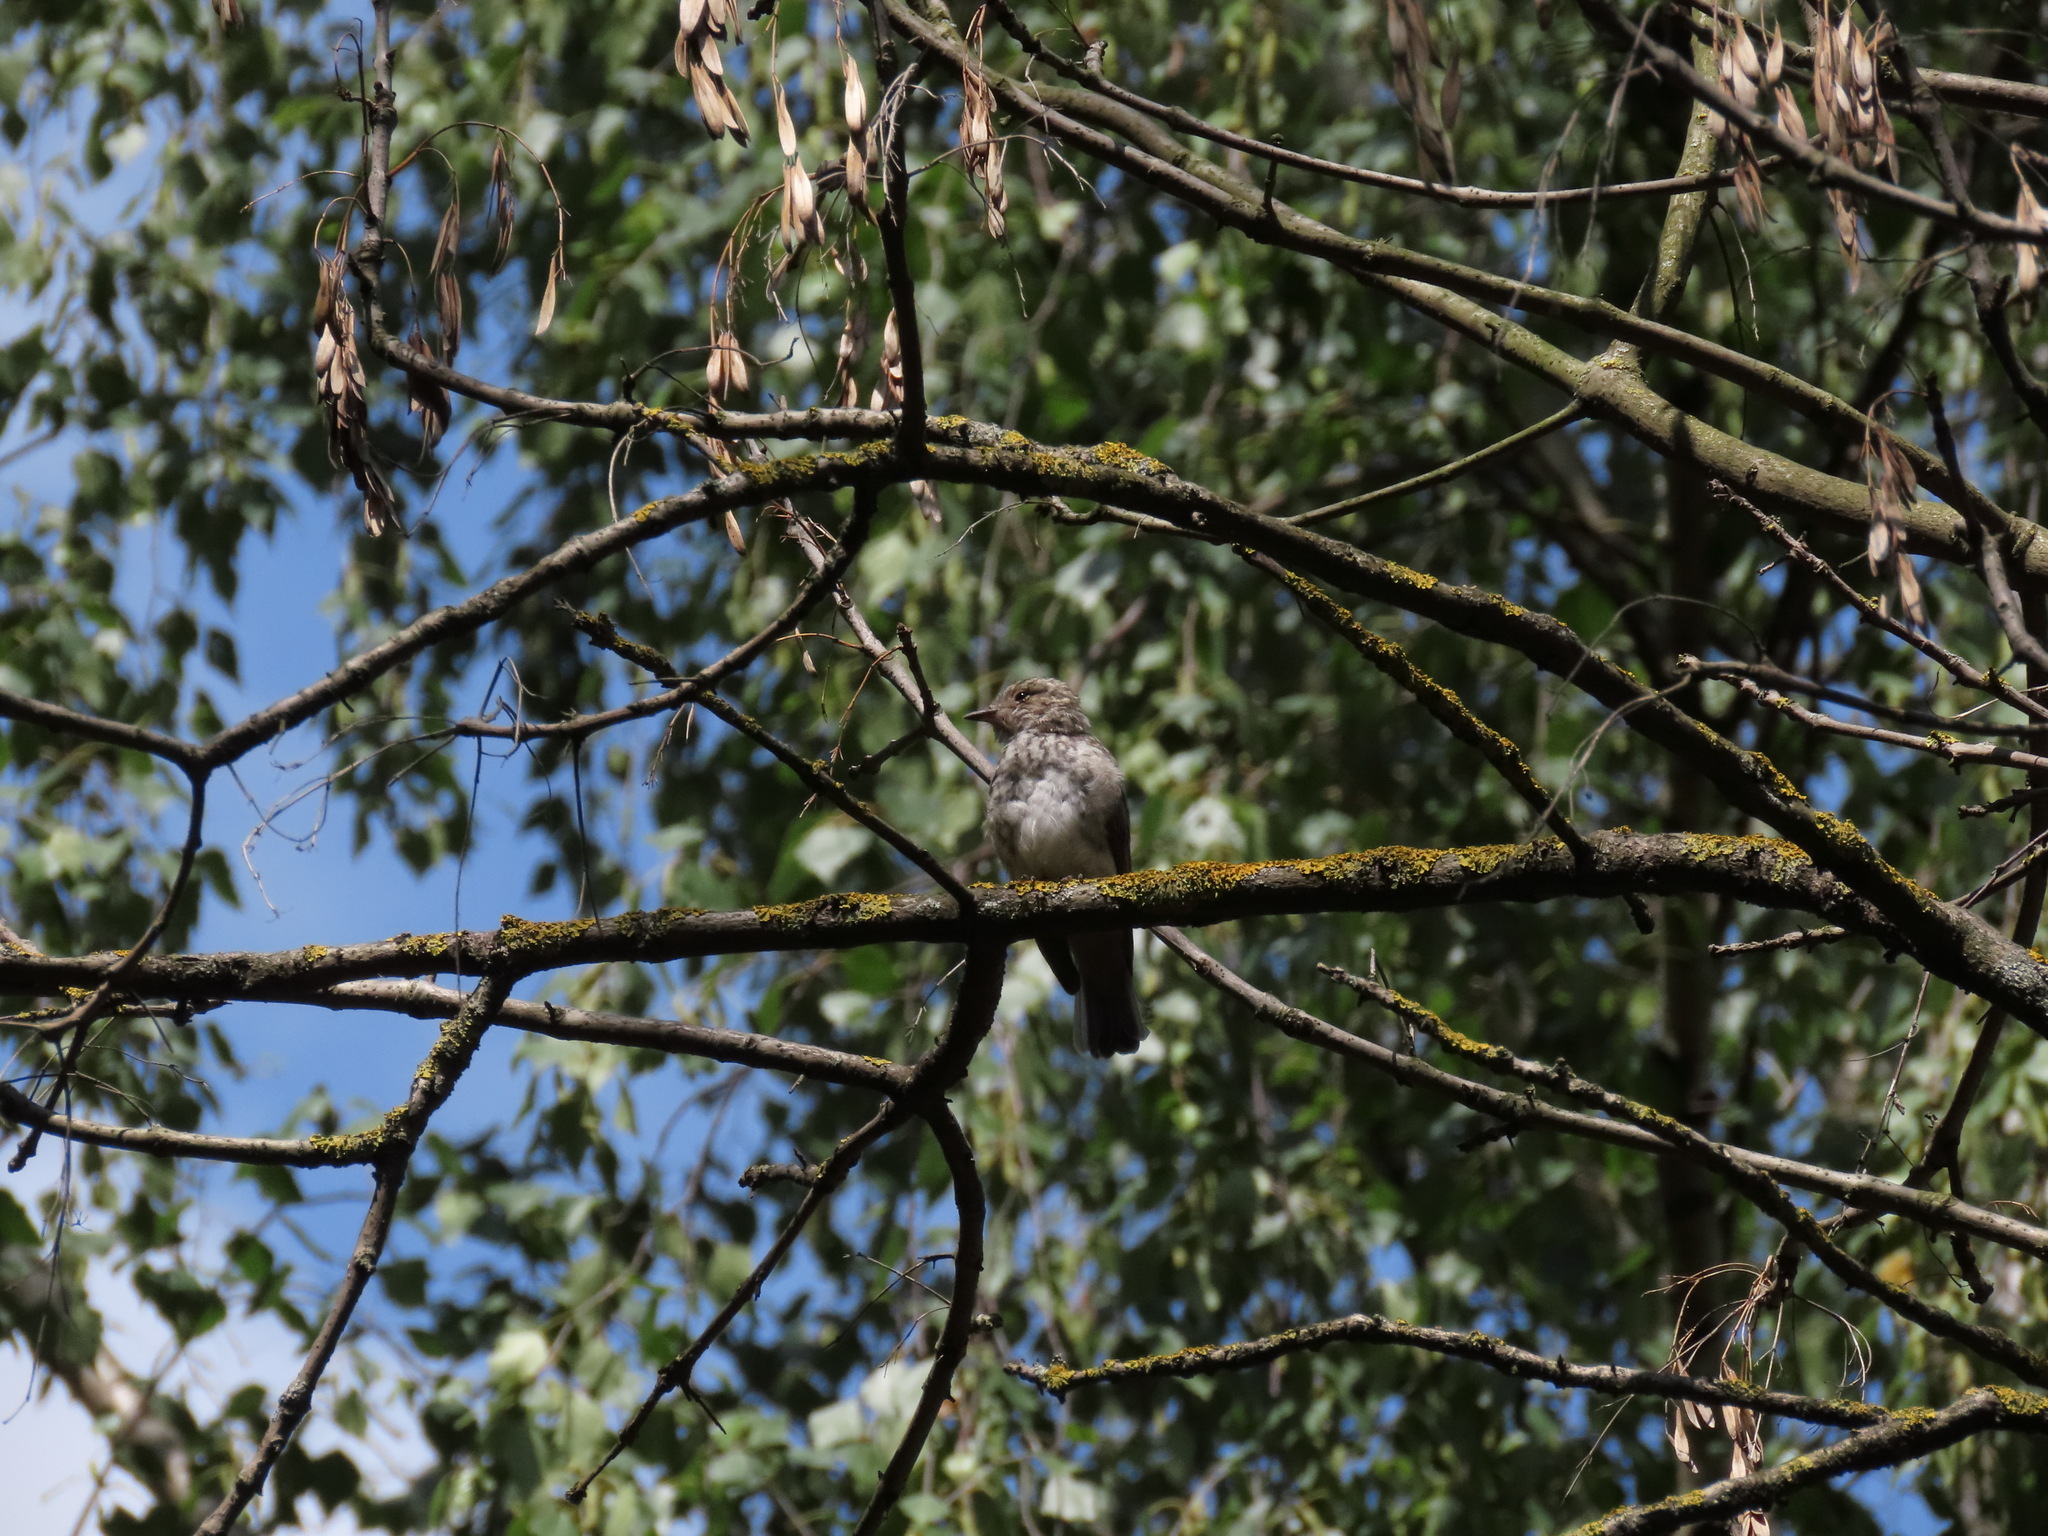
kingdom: Animalia
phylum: Chordata
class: Aves
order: Passeriformes
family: Muscicapidae
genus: Muscicapa
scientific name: Muscicapa striata
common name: Spotted flycatcher
